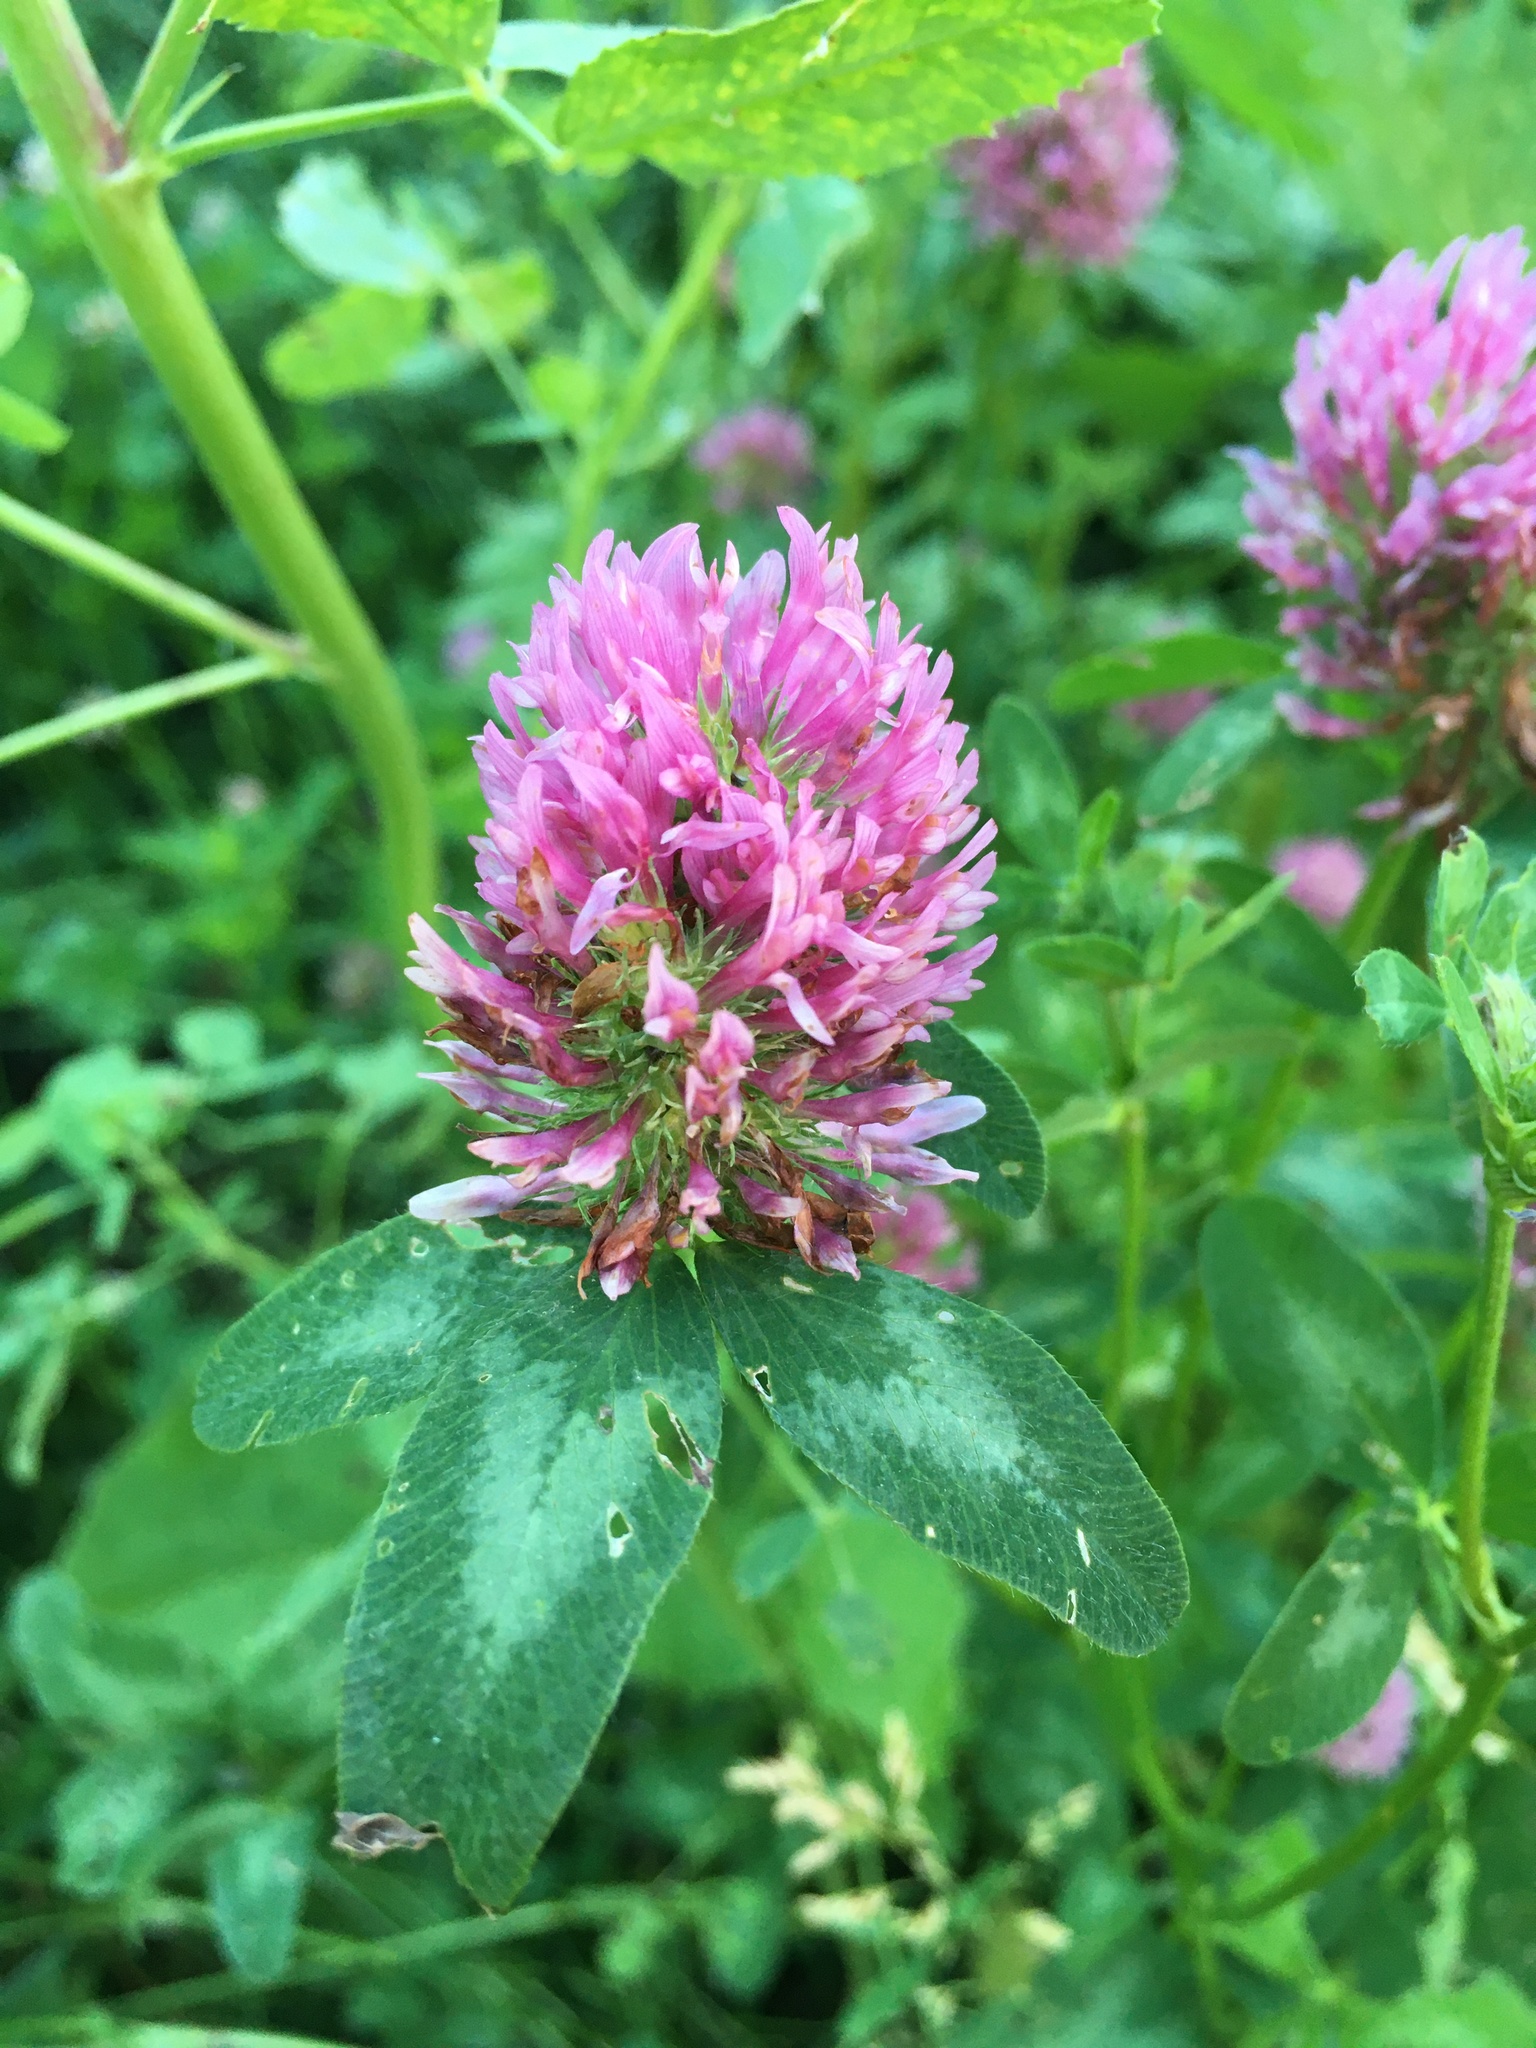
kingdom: Plantae
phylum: Tracheophyta
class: Magnoliopsida
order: Fabales
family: Fabaceae
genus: Trifolium
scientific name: Trifolium pratense
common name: Red clover
